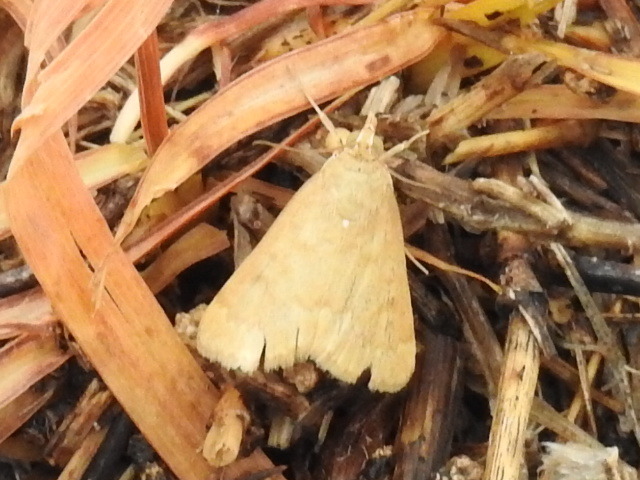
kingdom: Animalia
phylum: Arthropoda
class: Insecta
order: Lepidoptera
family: Crambidae
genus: Achyra
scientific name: Achyra rantalis
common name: Garden webworm
